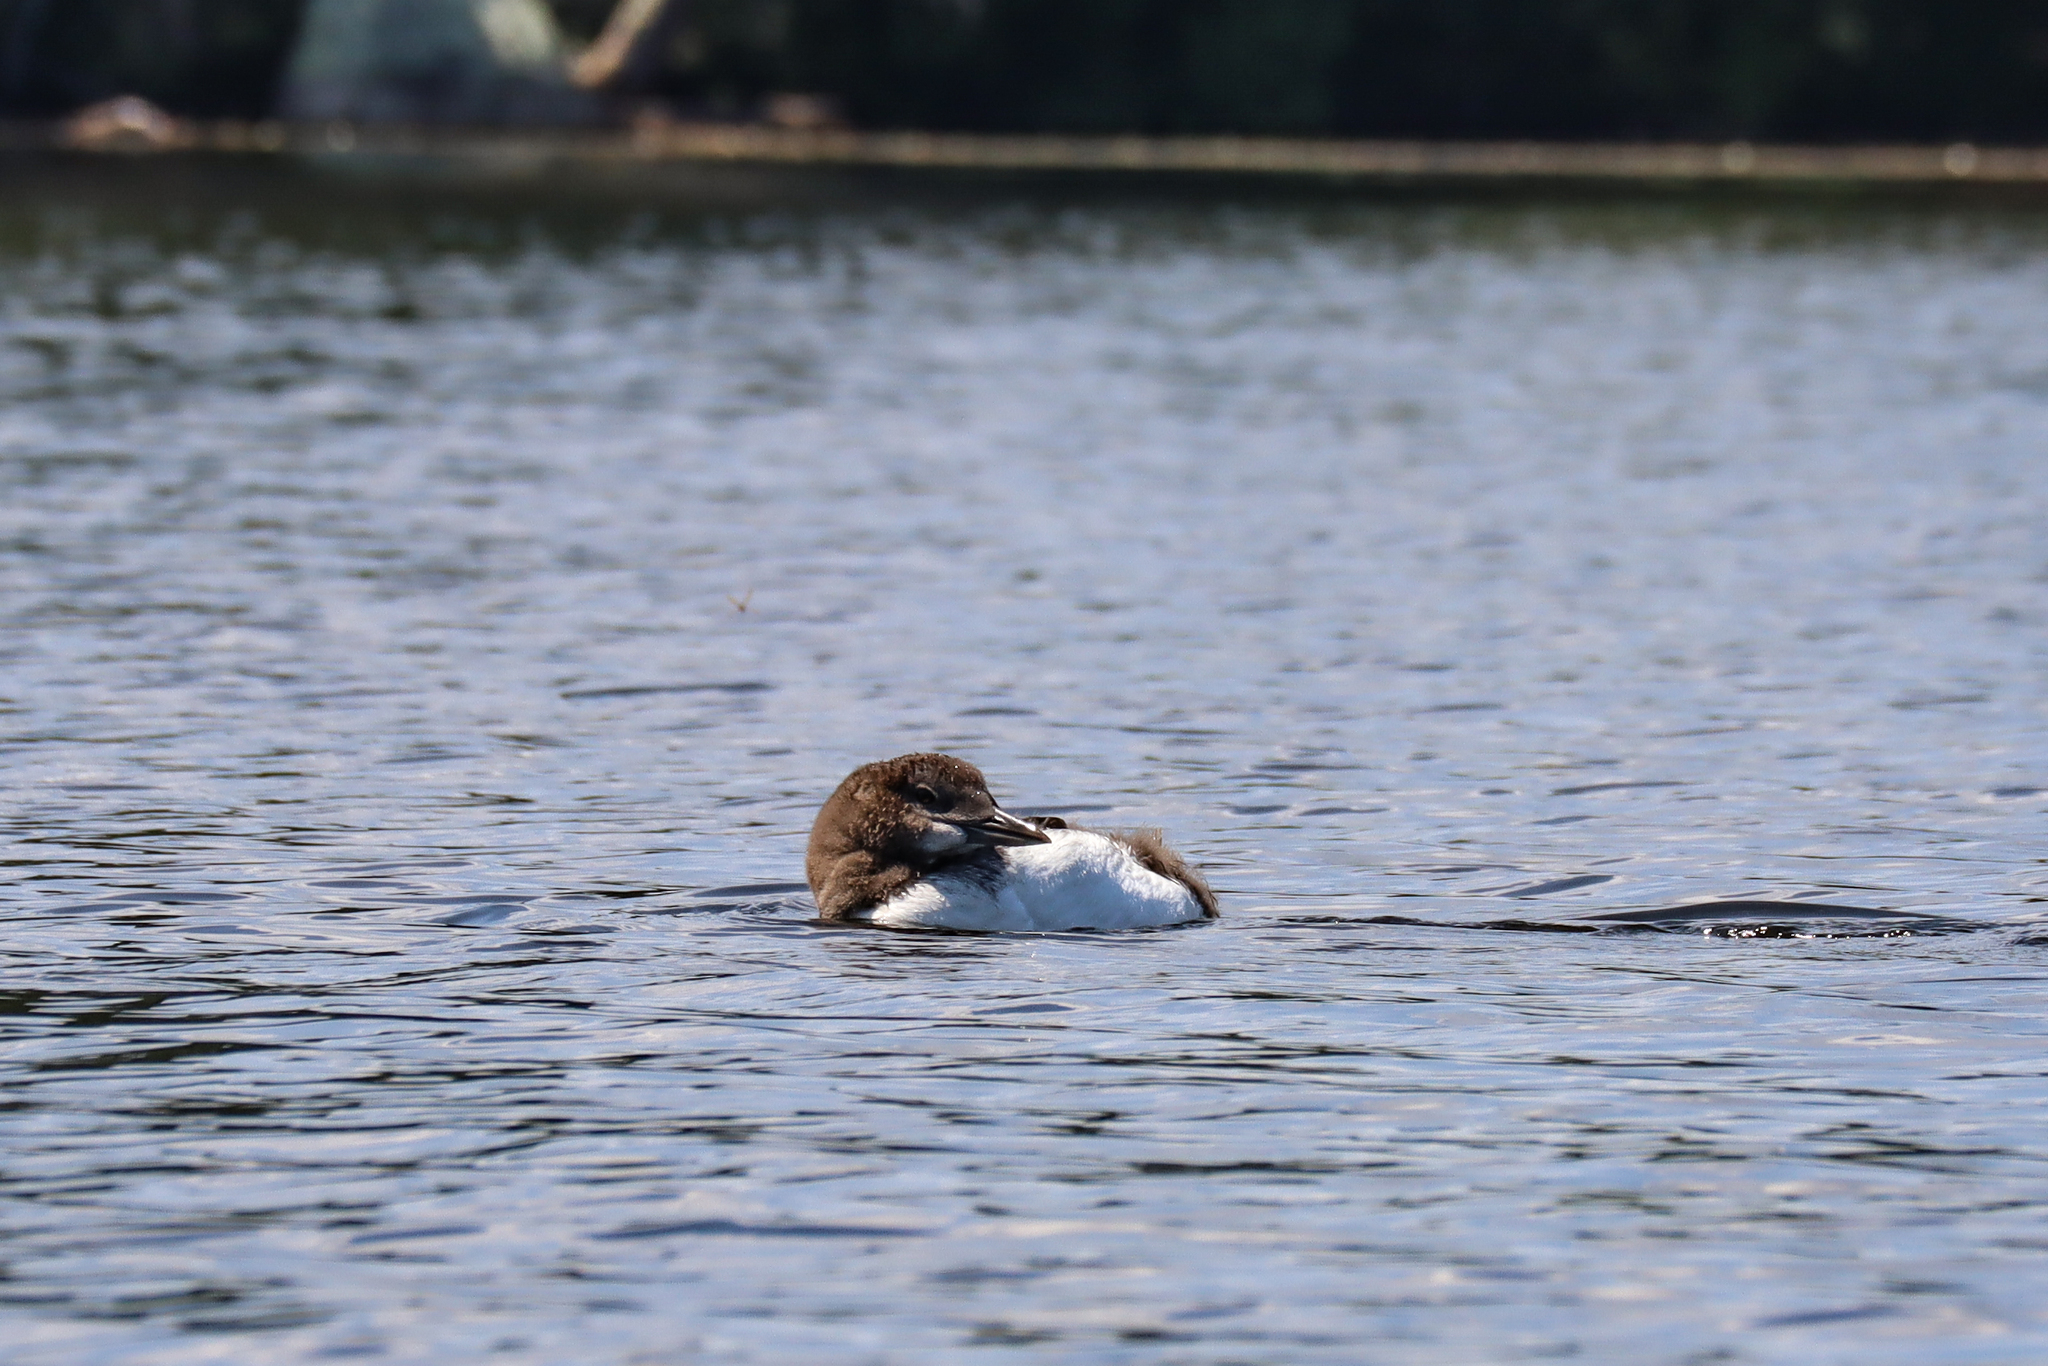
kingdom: Animalia
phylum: Chordata
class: Aves
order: Gaviiformes
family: Gaviidae
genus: Gavia
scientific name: Gavia immer
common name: Common loon
